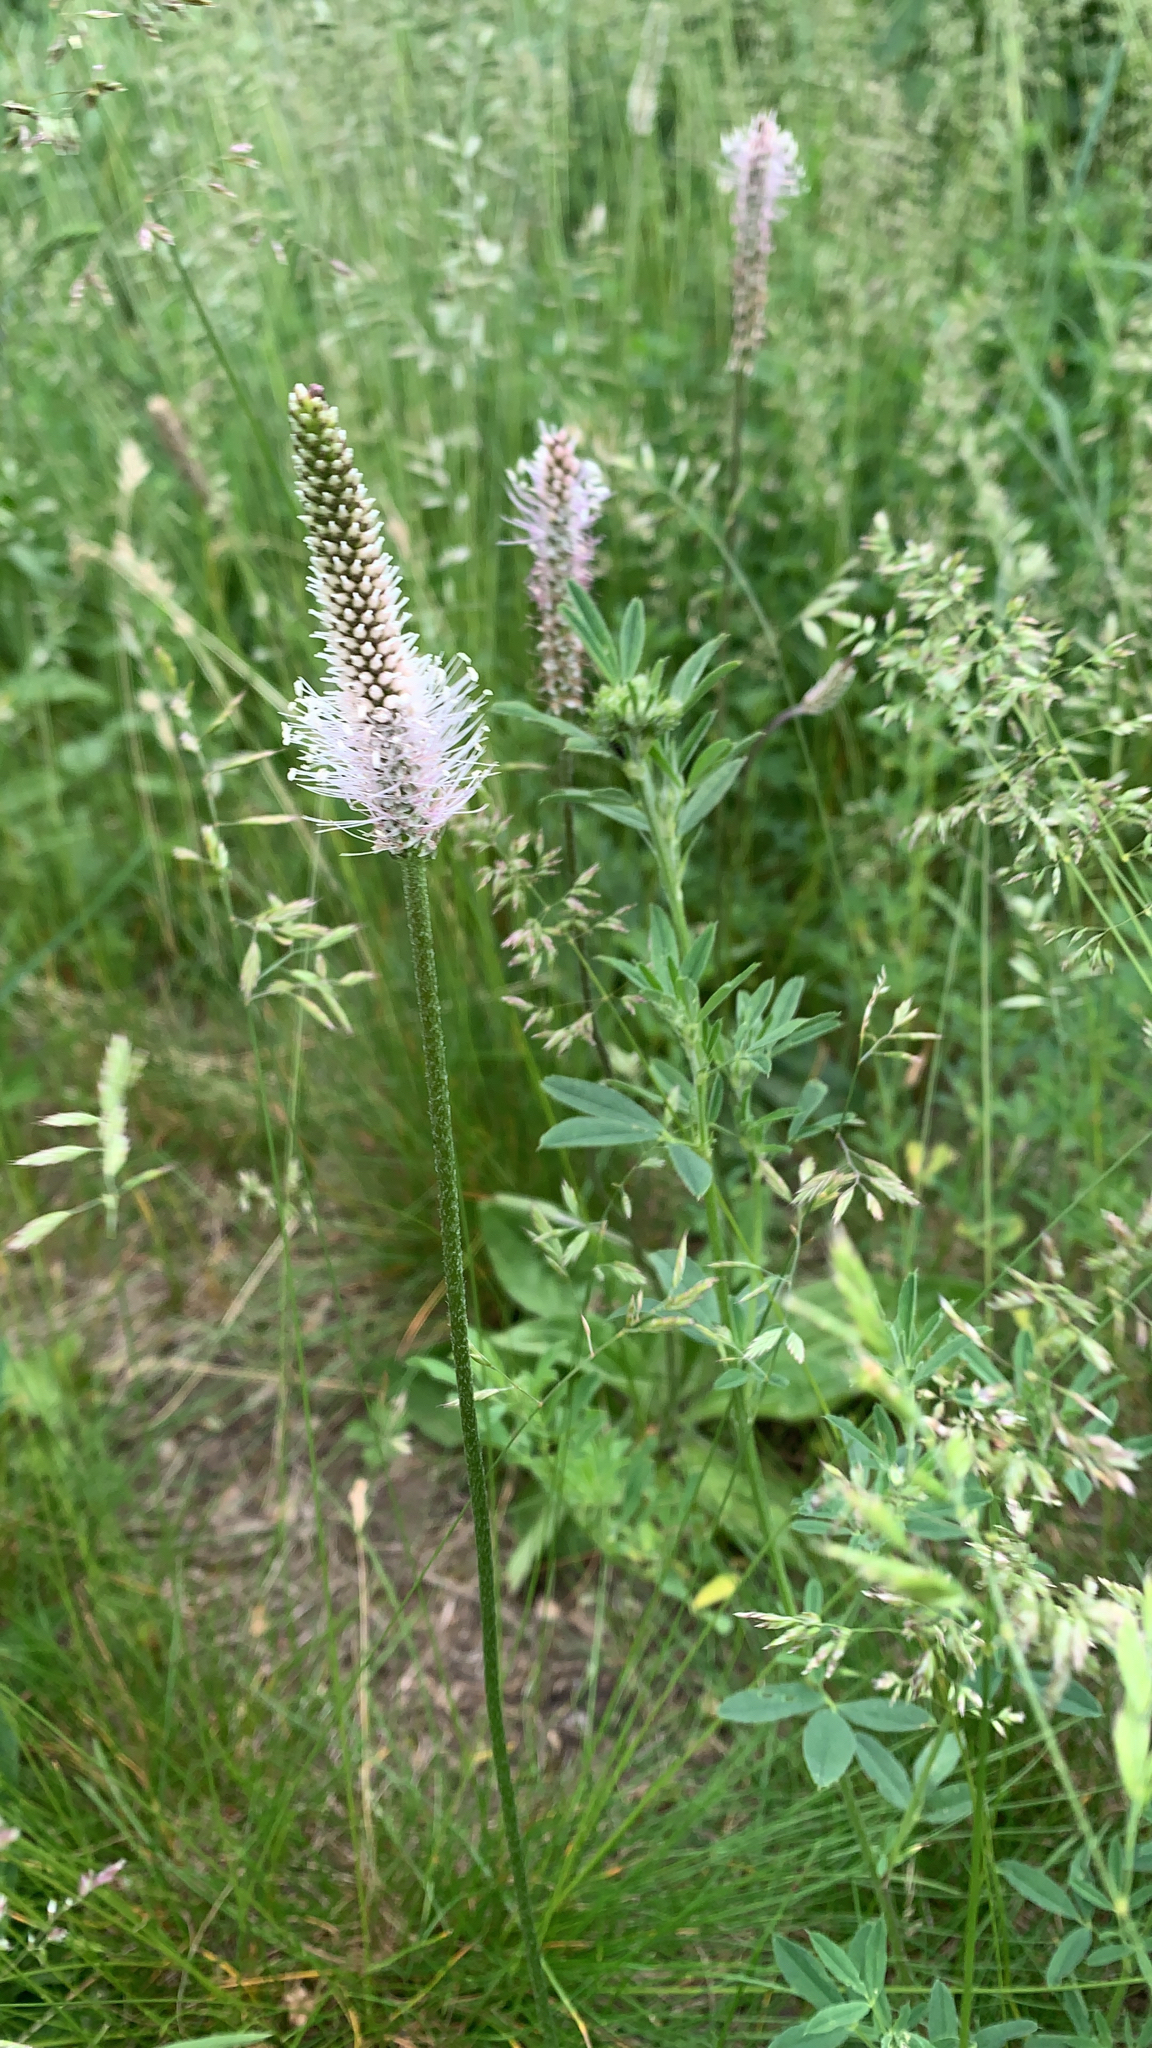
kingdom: Plantae
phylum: Tracheophyta
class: Magnoliopsida
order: Lamiales
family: Plantaginaceae
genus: Plantago
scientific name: Plantago media
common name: Hoary plantain
